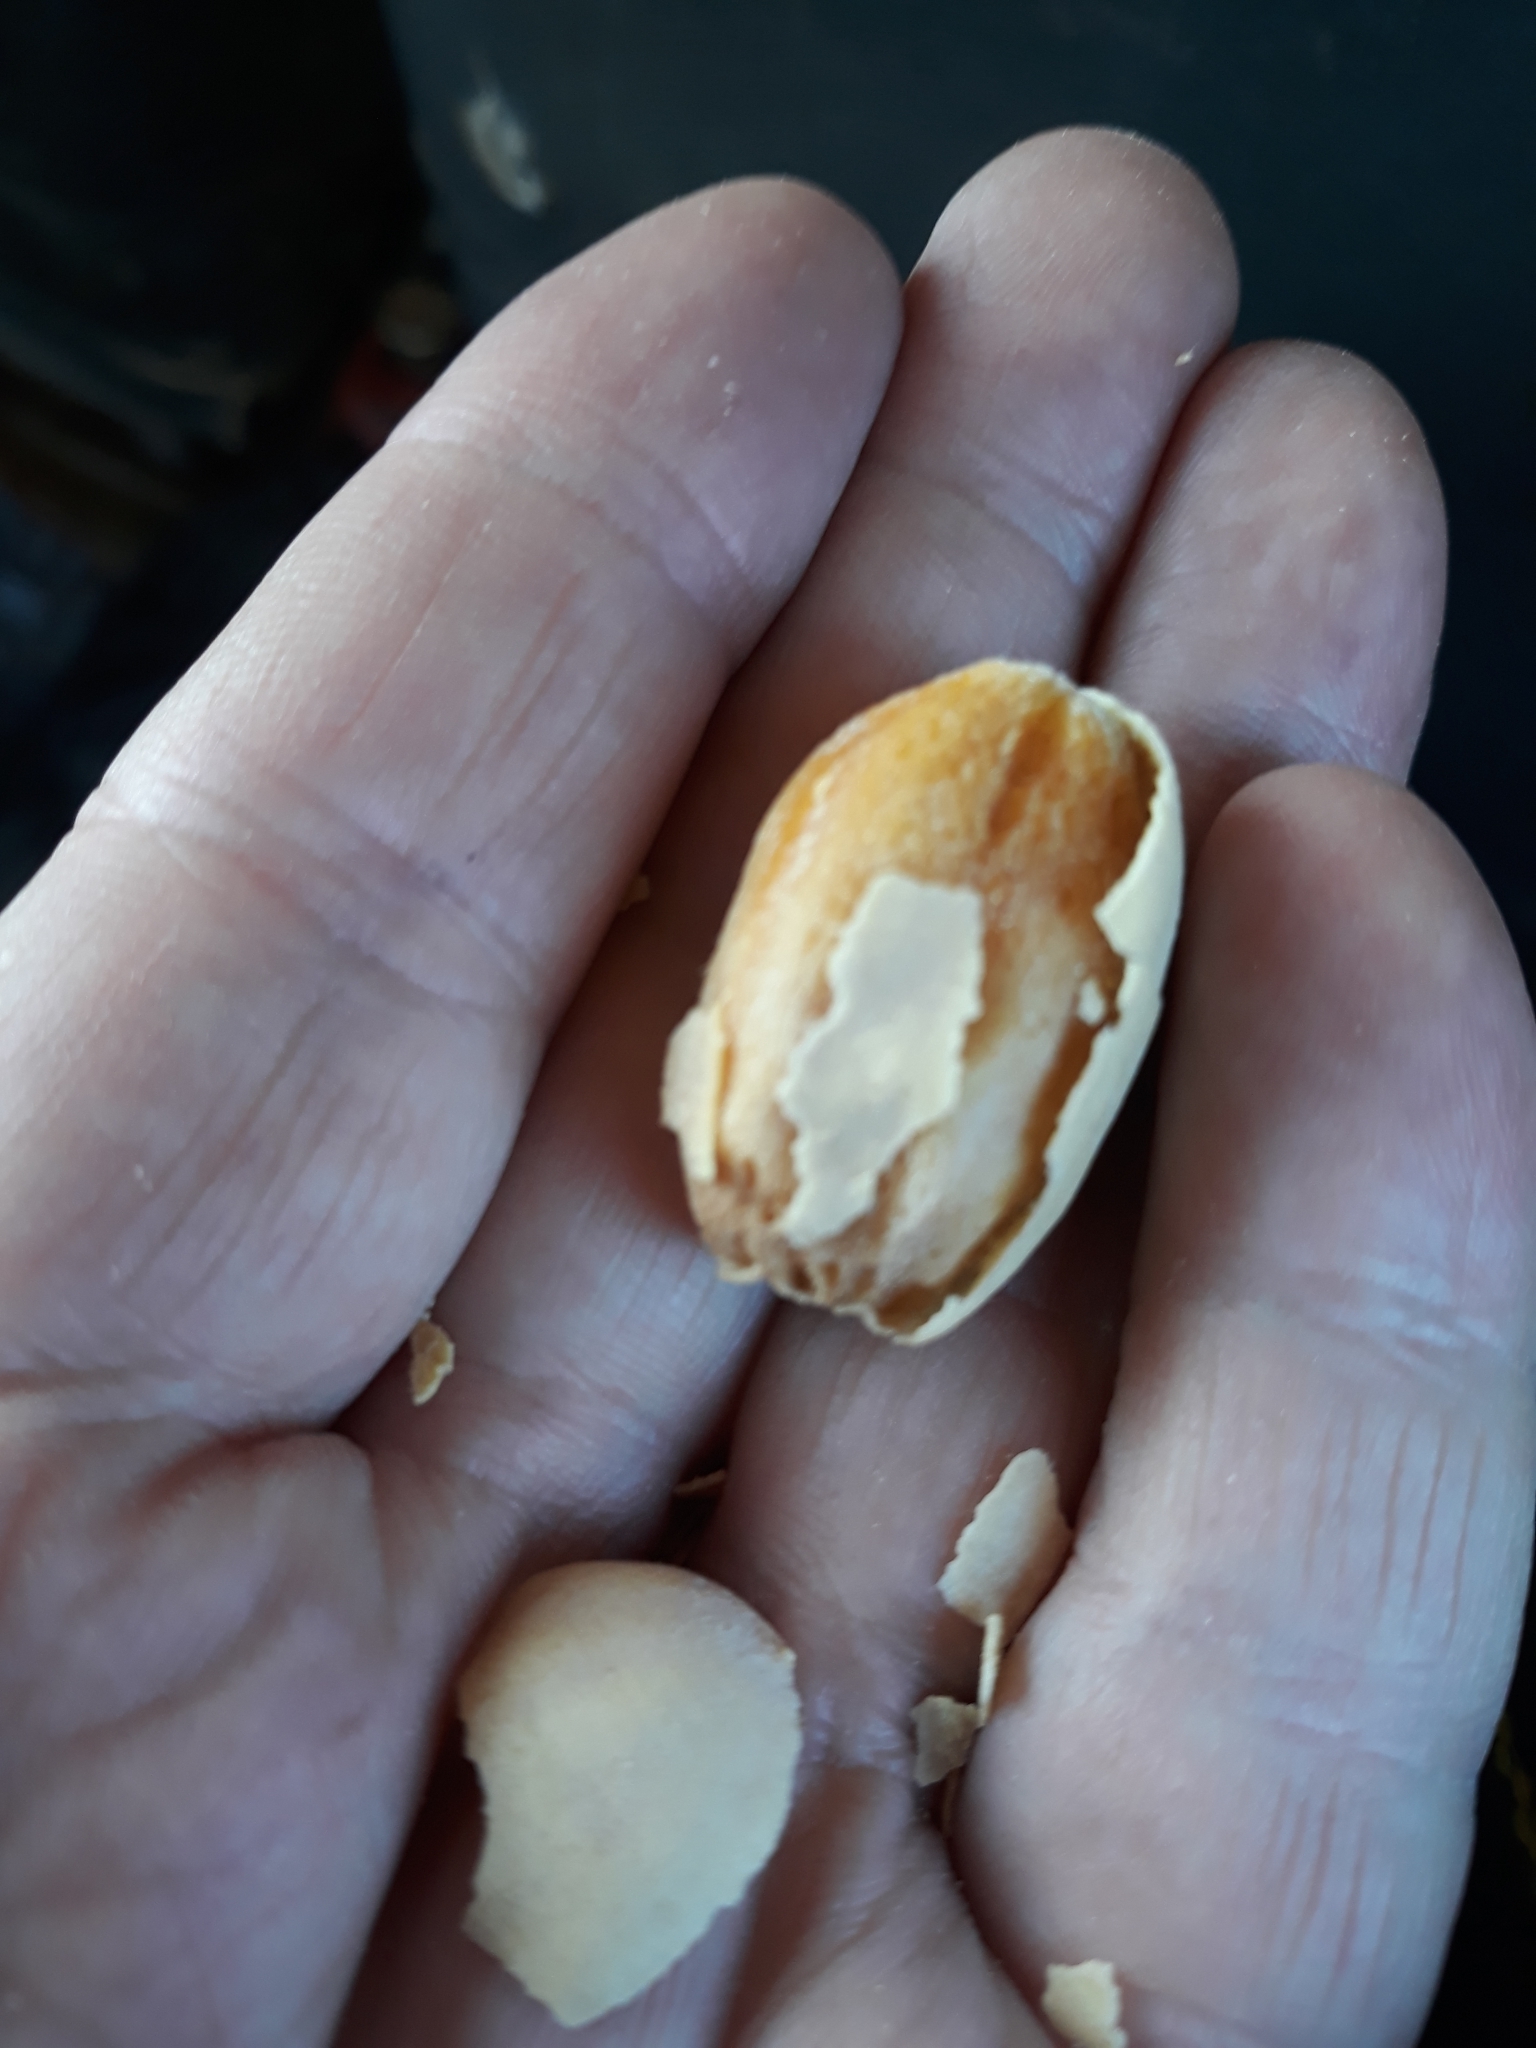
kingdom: Plantae
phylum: Tracheophyta
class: Magnoliopsida
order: Zygophyllales
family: Zygophyllaceae
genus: Balanites
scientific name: Balanites aegyptiaca
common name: Balanites
